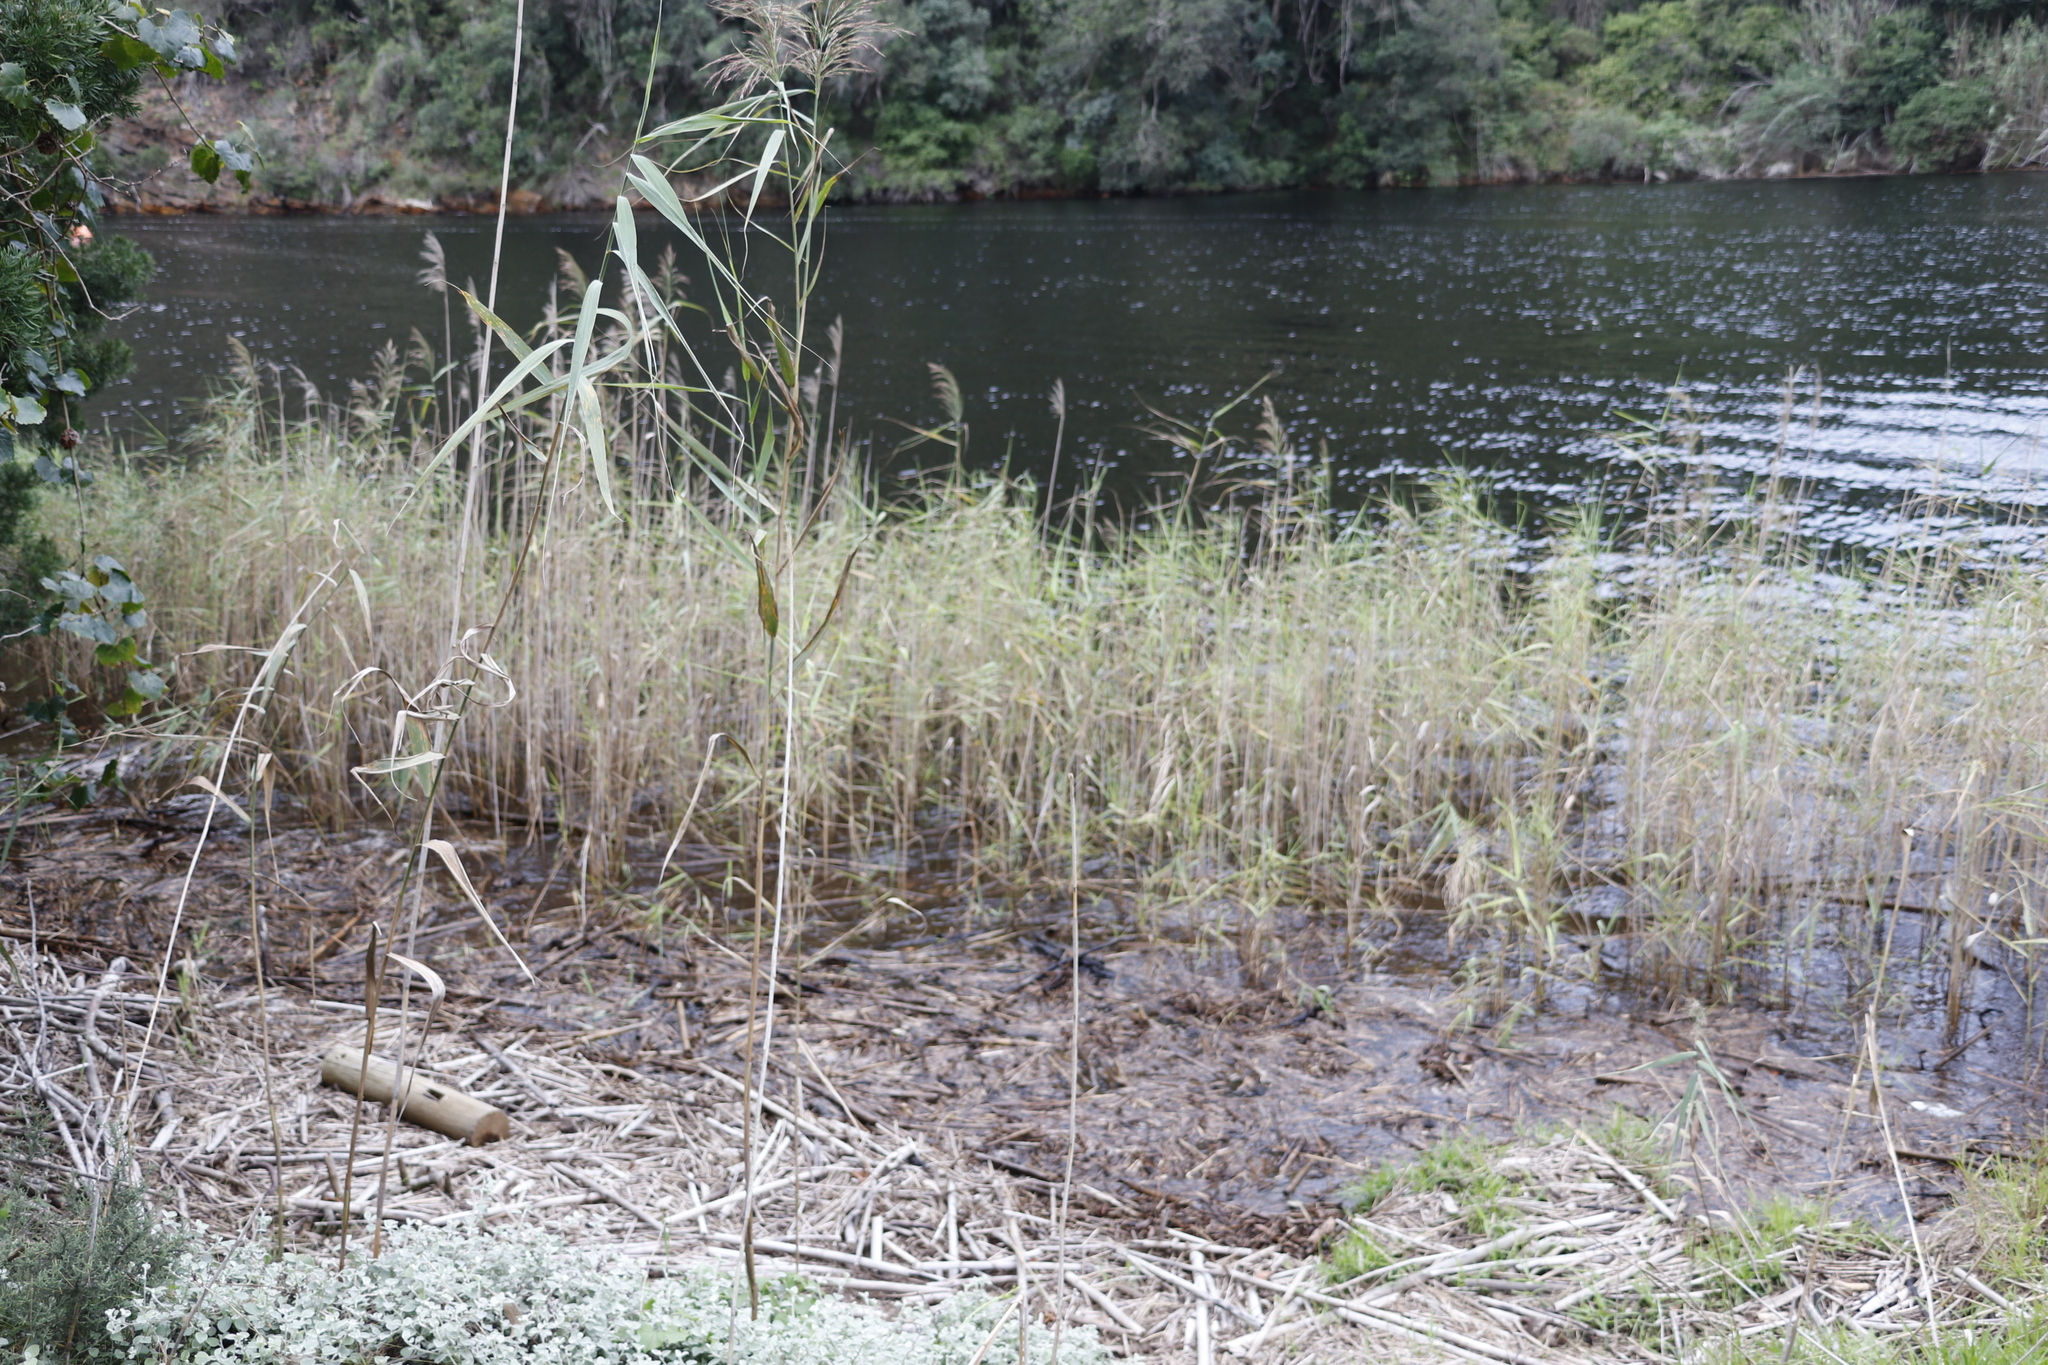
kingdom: Plantae
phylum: Tracheophyta
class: Liliopsida
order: Poales
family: Poaceae
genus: Phragmites
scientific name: Phragmites australis
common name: Common reed
